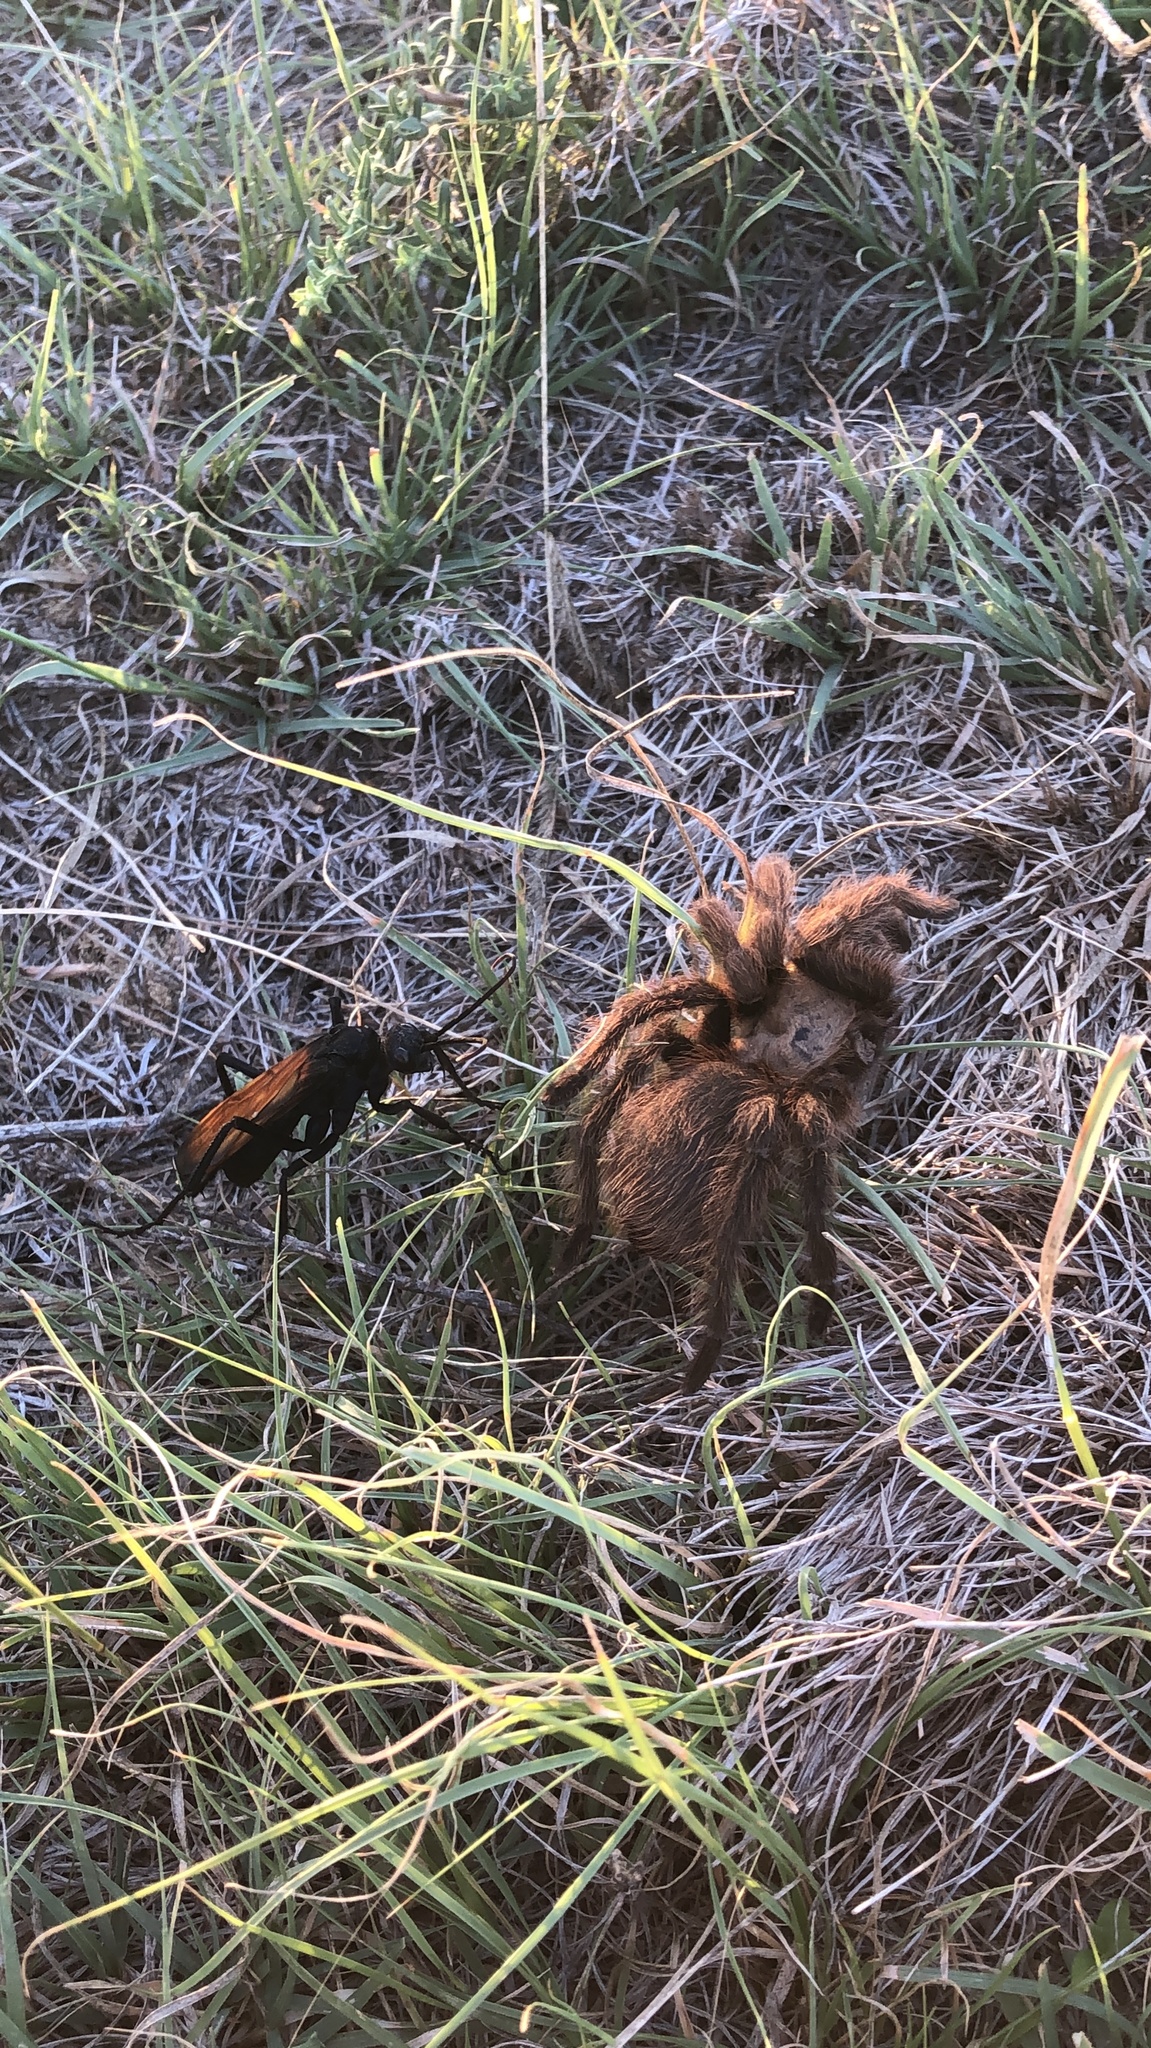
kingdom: Animalia
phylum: Arthropoda
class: Insecta
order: Hymenoptera
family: Pompilidae
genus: Pepsis
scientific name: Pepsis grossa
